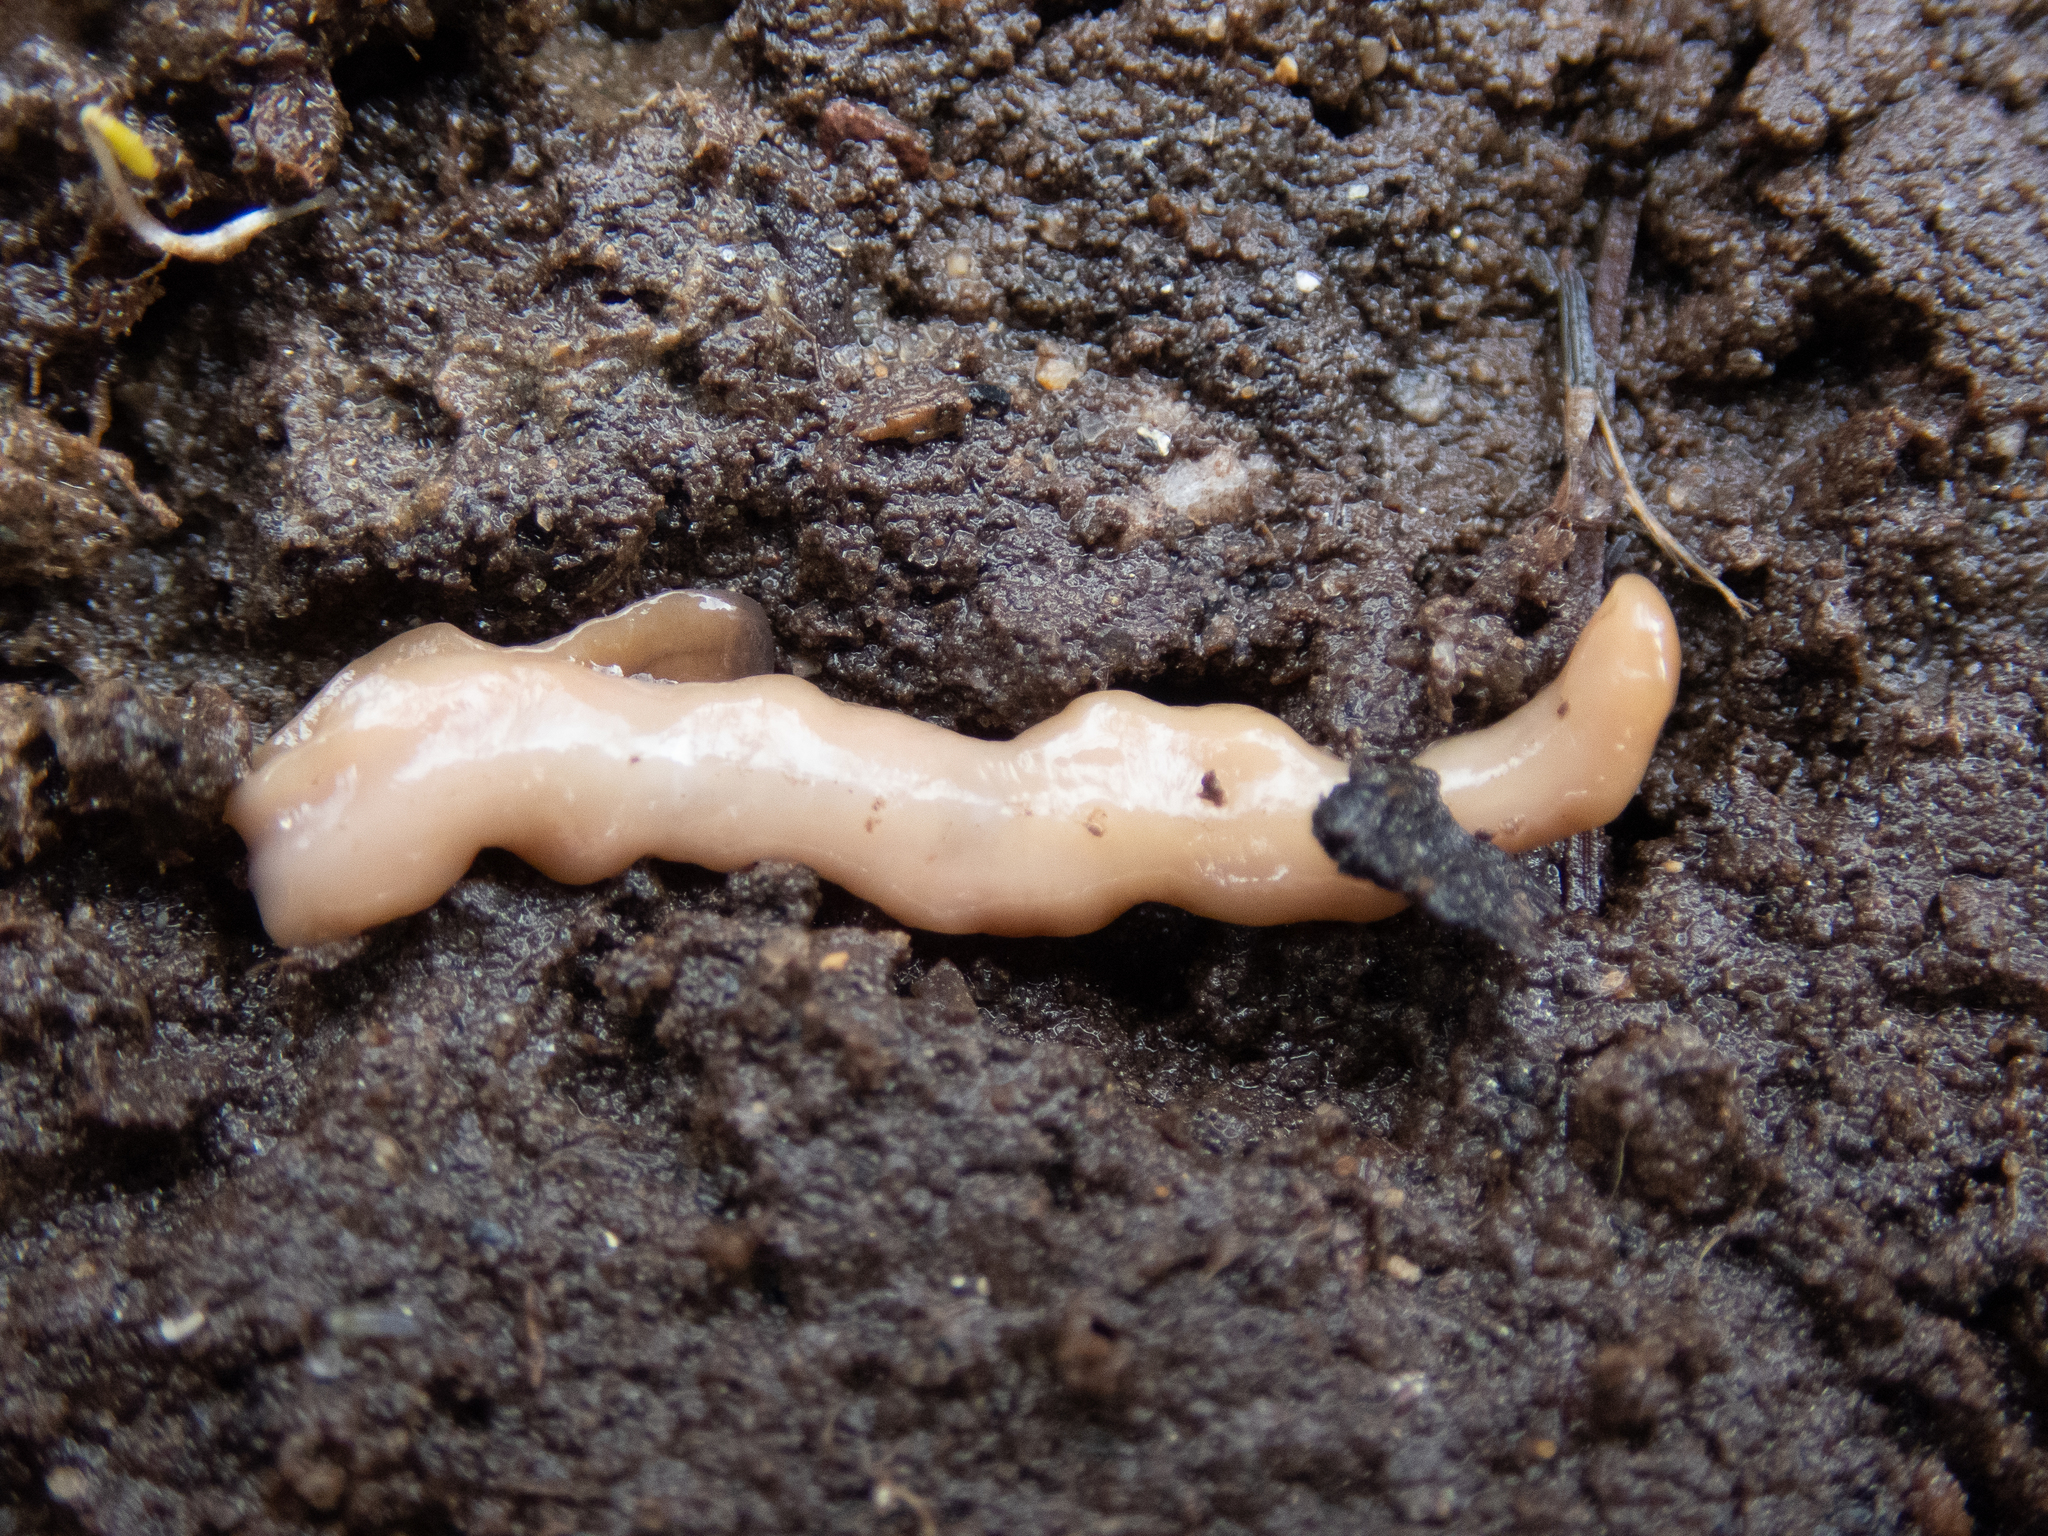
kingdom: Animalia
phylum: Platyhelminthes
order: Tricladida
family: Geoplanidae
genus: Bipalium
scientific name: Bipalium adventitium
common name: Land planarian
